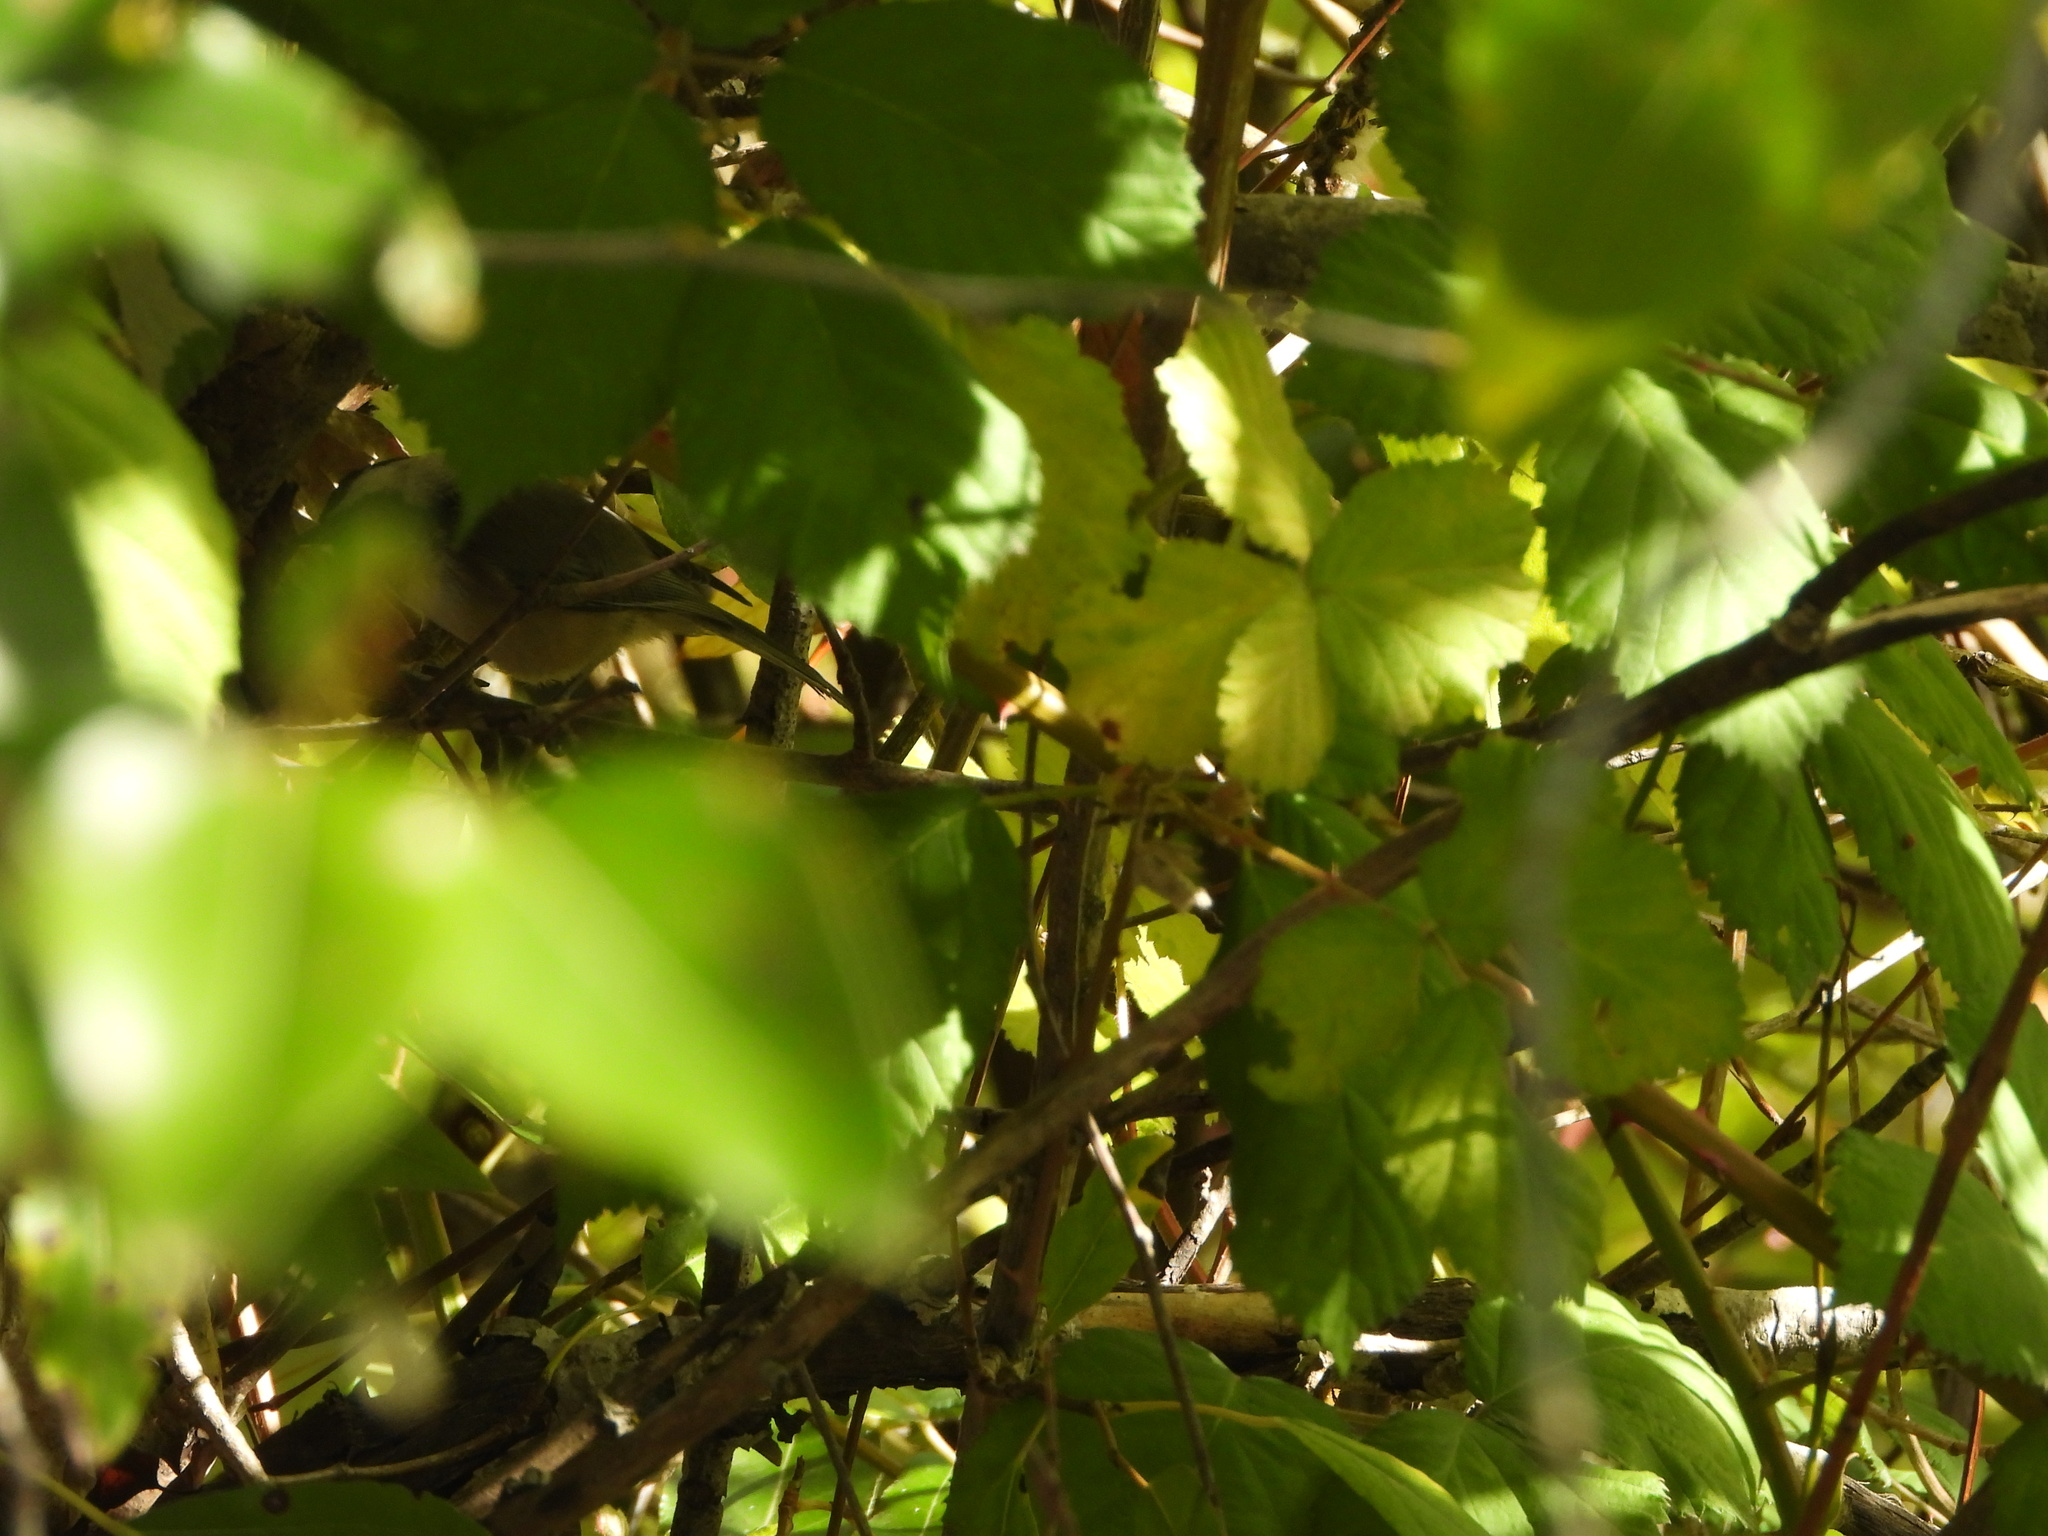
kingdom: Animalia
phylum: Chordata
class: Aves
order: Passeriformes
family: Paridae
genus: Poecile
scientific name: Poecile atricapillus
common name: Black-capped chickadee
